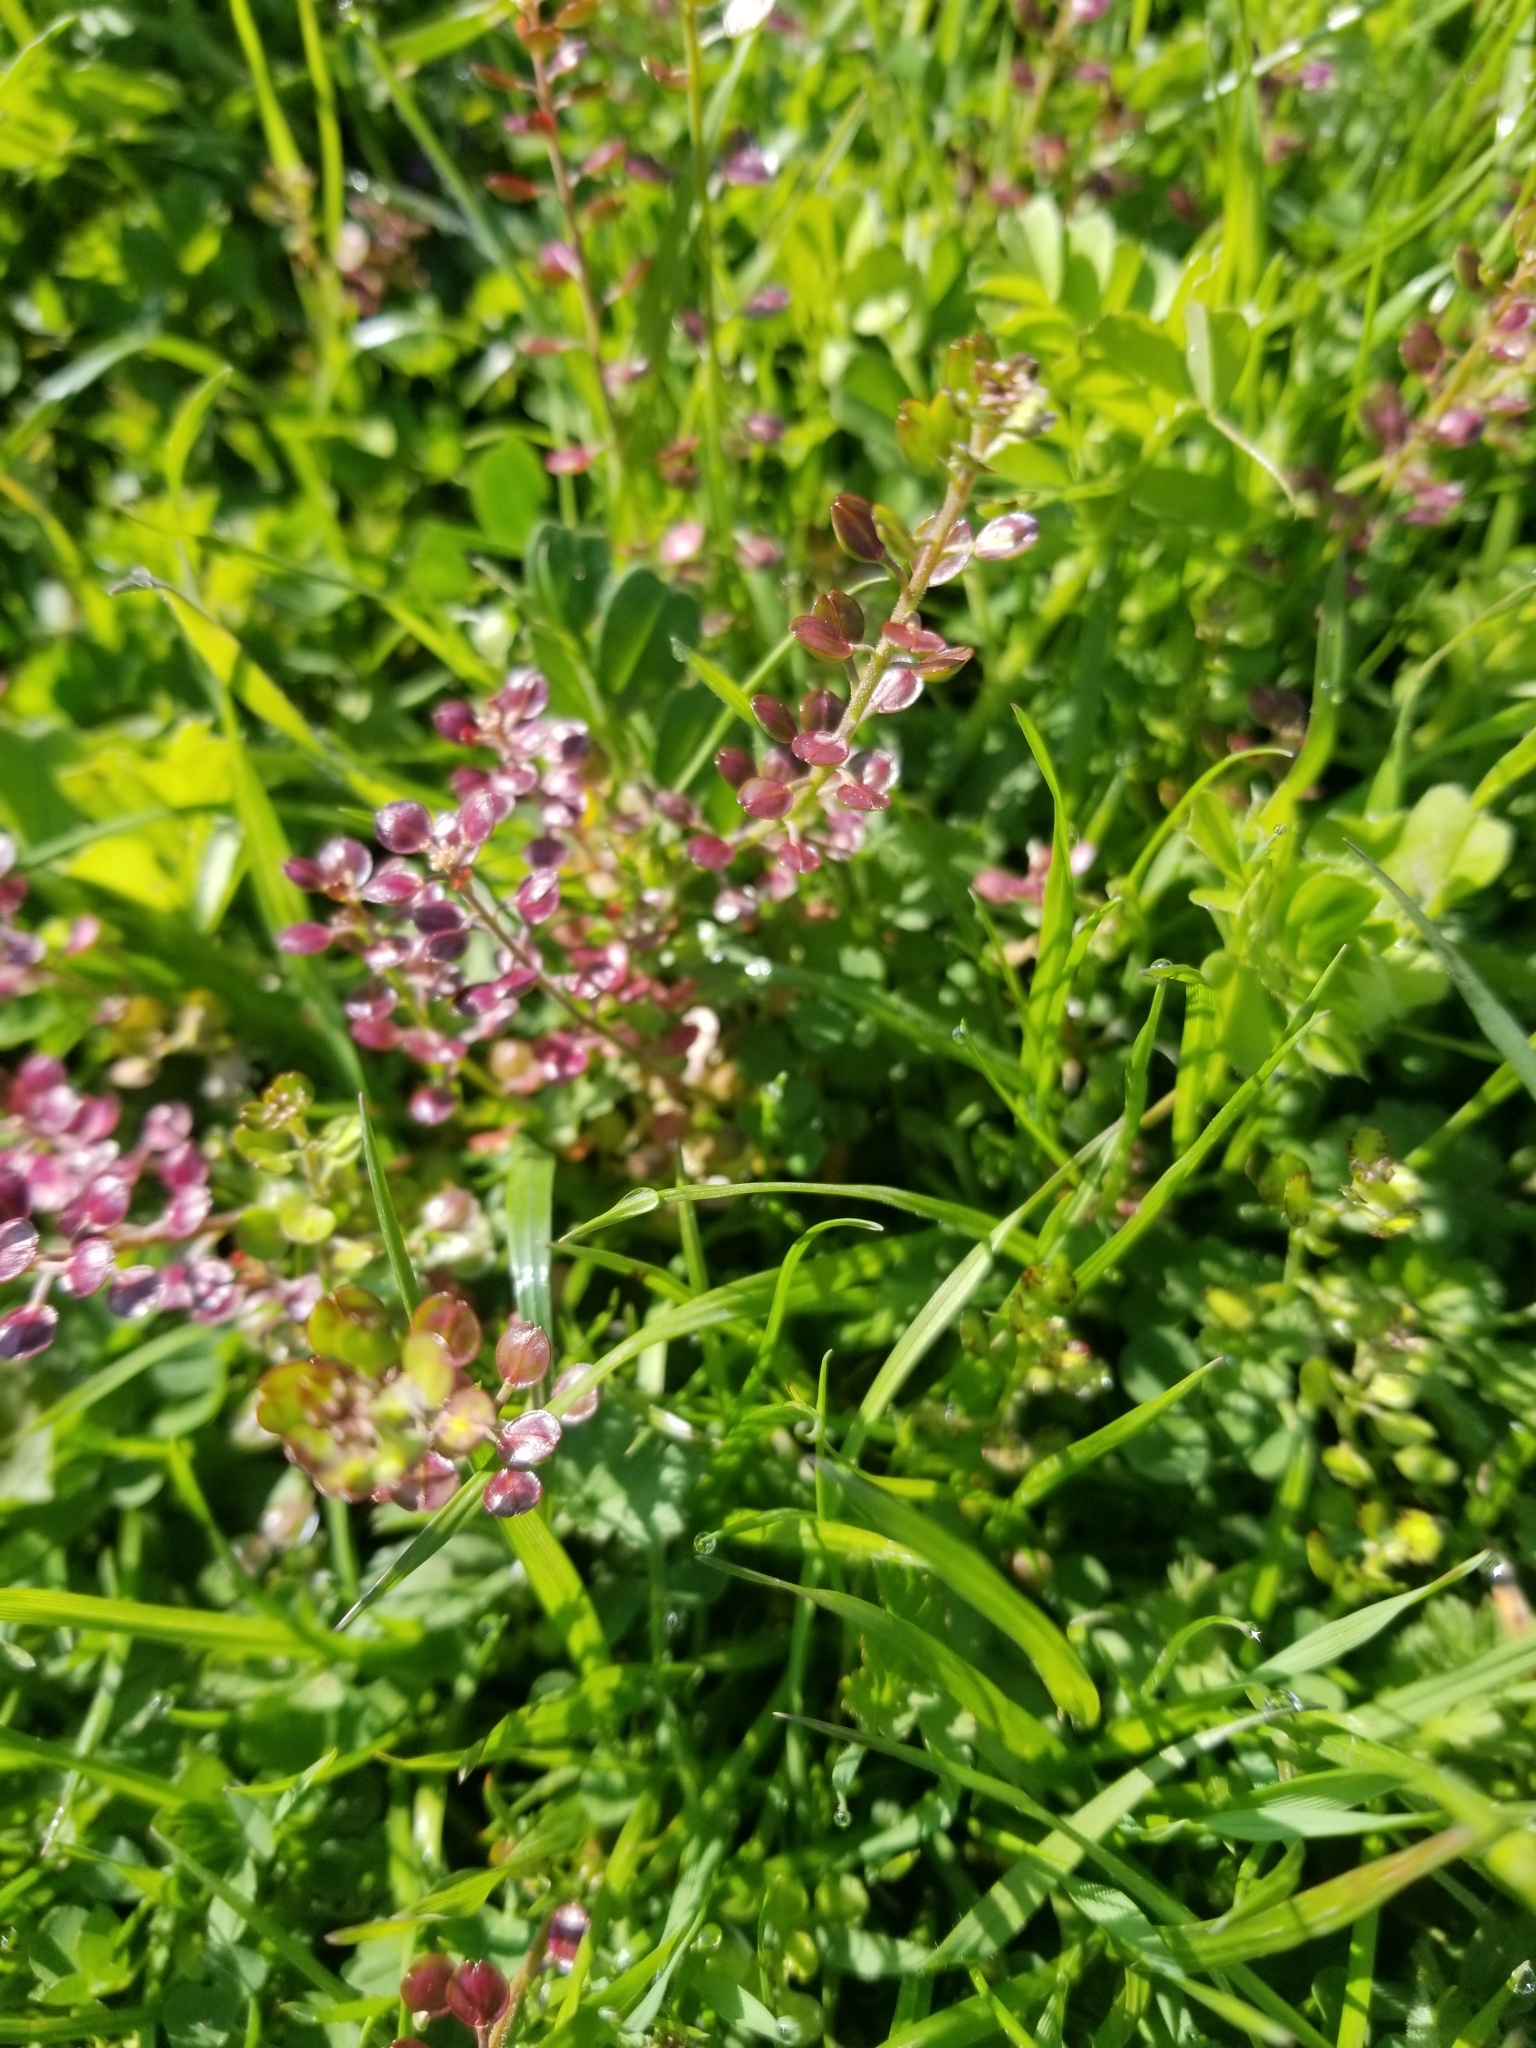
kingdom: Plantae
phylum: Tracheophyta
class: Magnoliopsida
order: Brassicales
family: Brassicaceae
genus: Lepidium
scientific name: Lepidium nitidum
